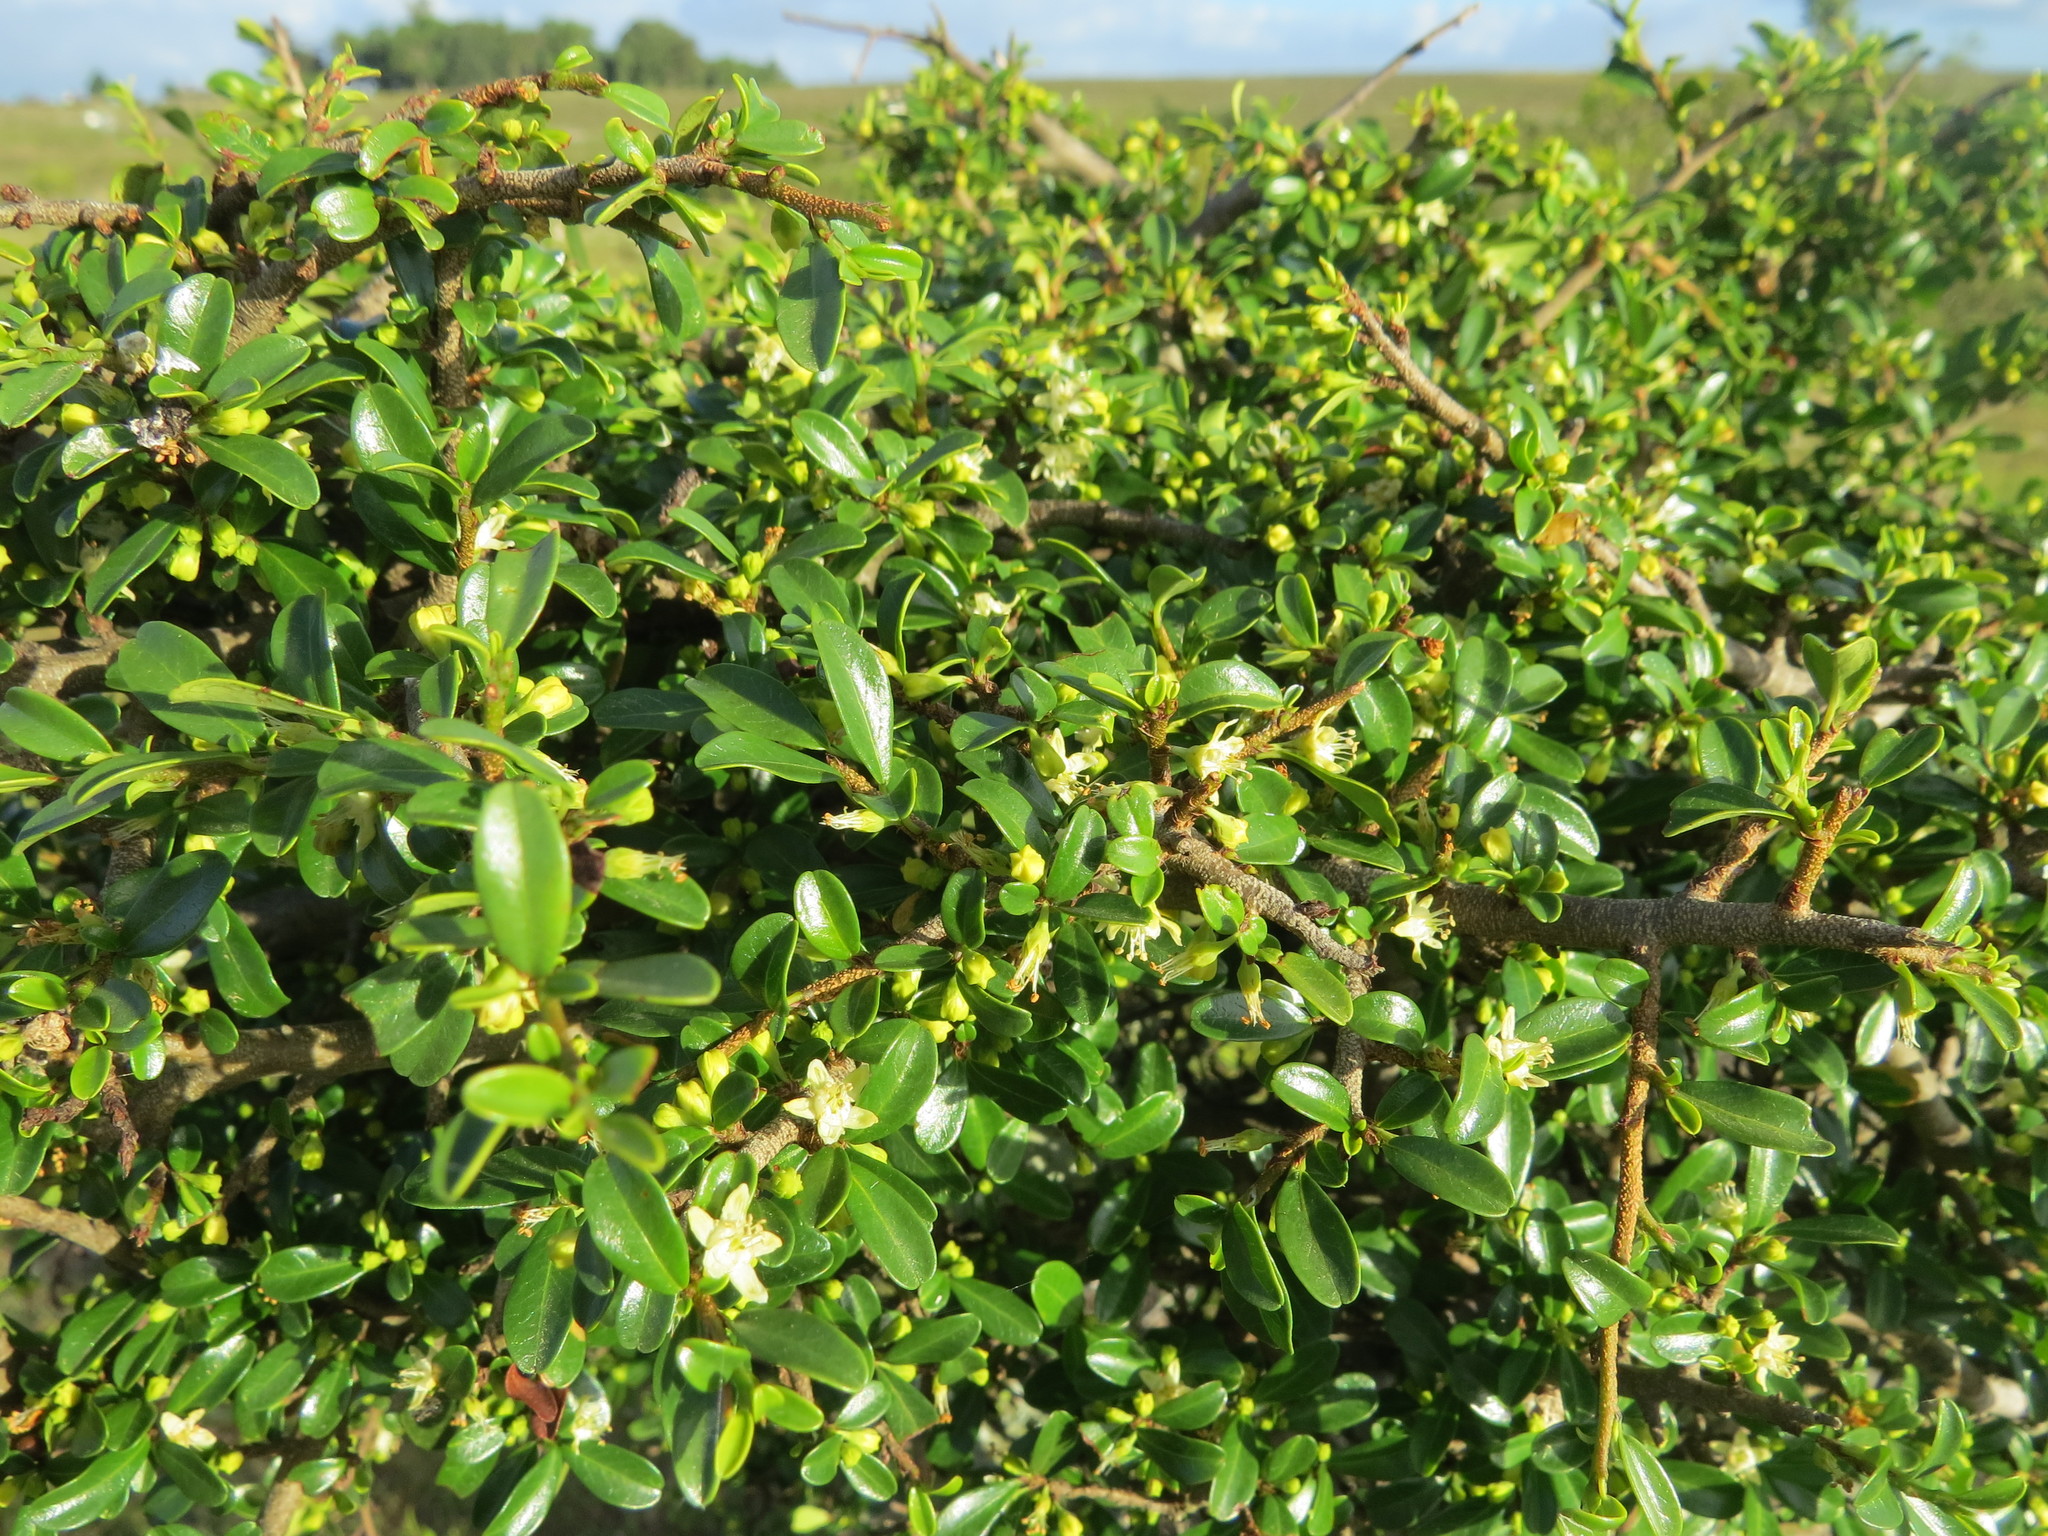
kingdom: Plantae
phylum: Tracheophyta
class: Magnoliopsida
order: Malpighiales
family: Erythroxylaceae
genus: Erythroxylum
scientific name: Erythroxylum microphyllum
